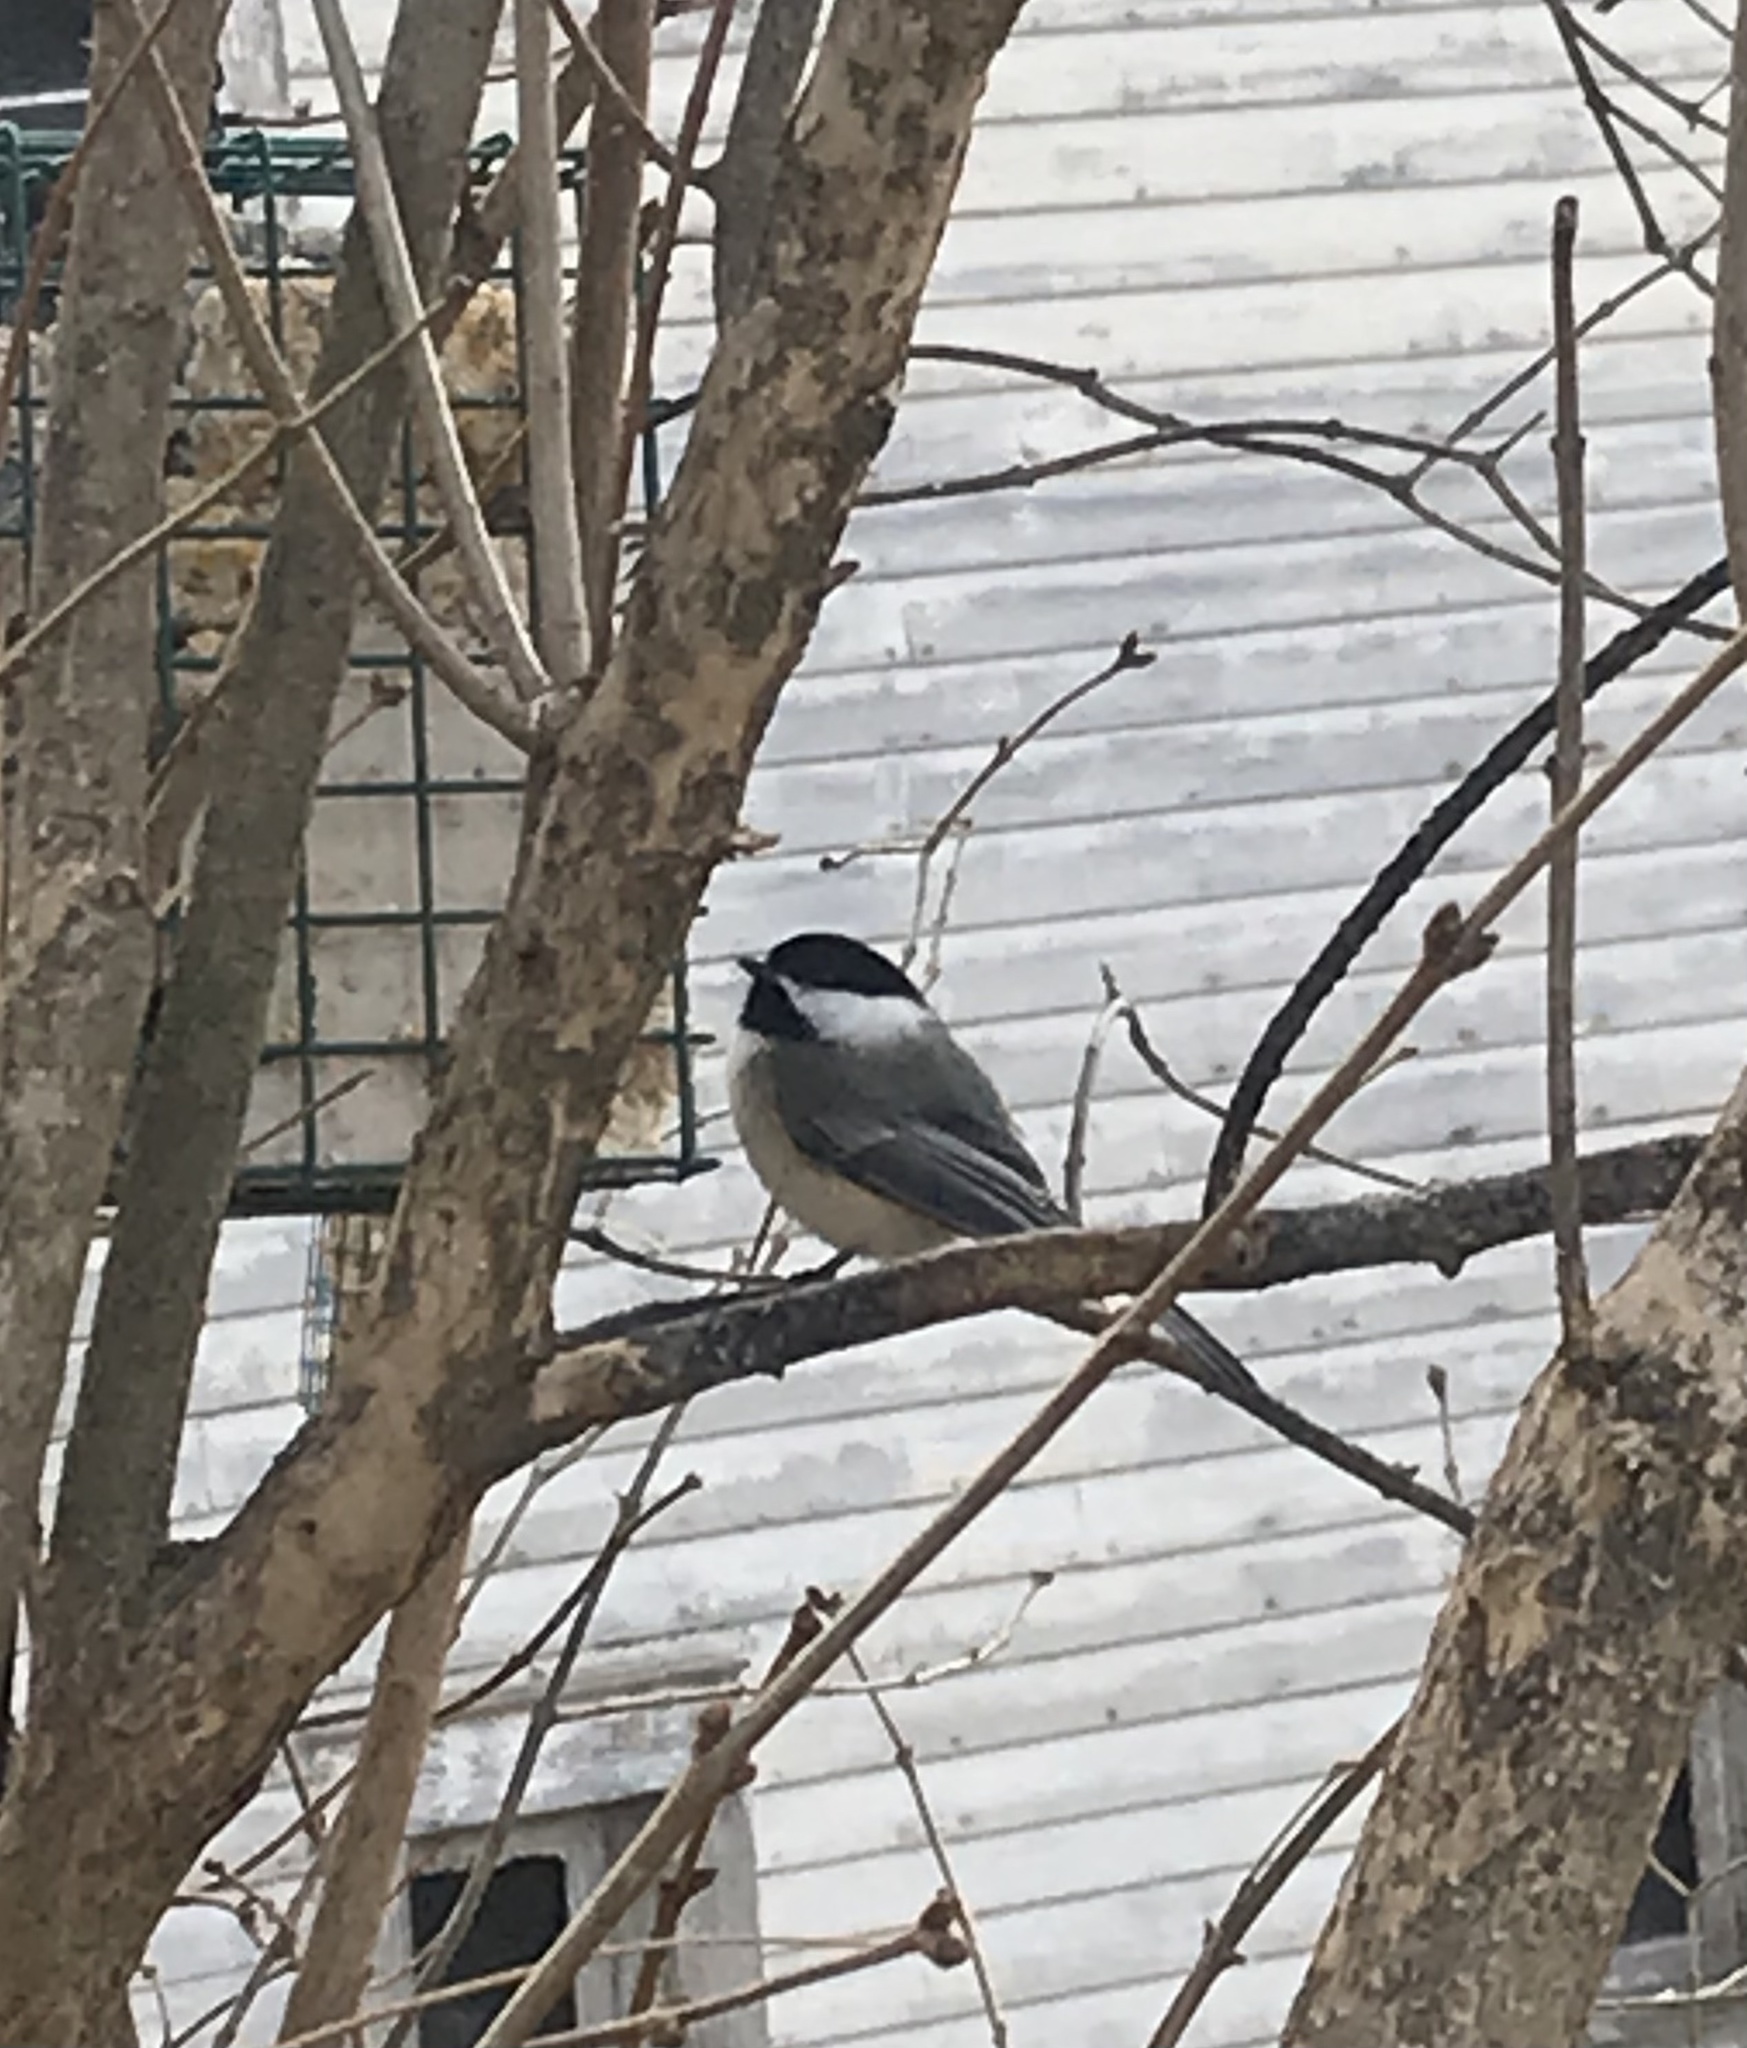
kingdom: Animalia
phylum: Chordata
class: Aves
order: Passeriformes
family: Paridae
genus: Poecile
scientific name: Poecile atricapillus
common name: Black-capped chickadee
